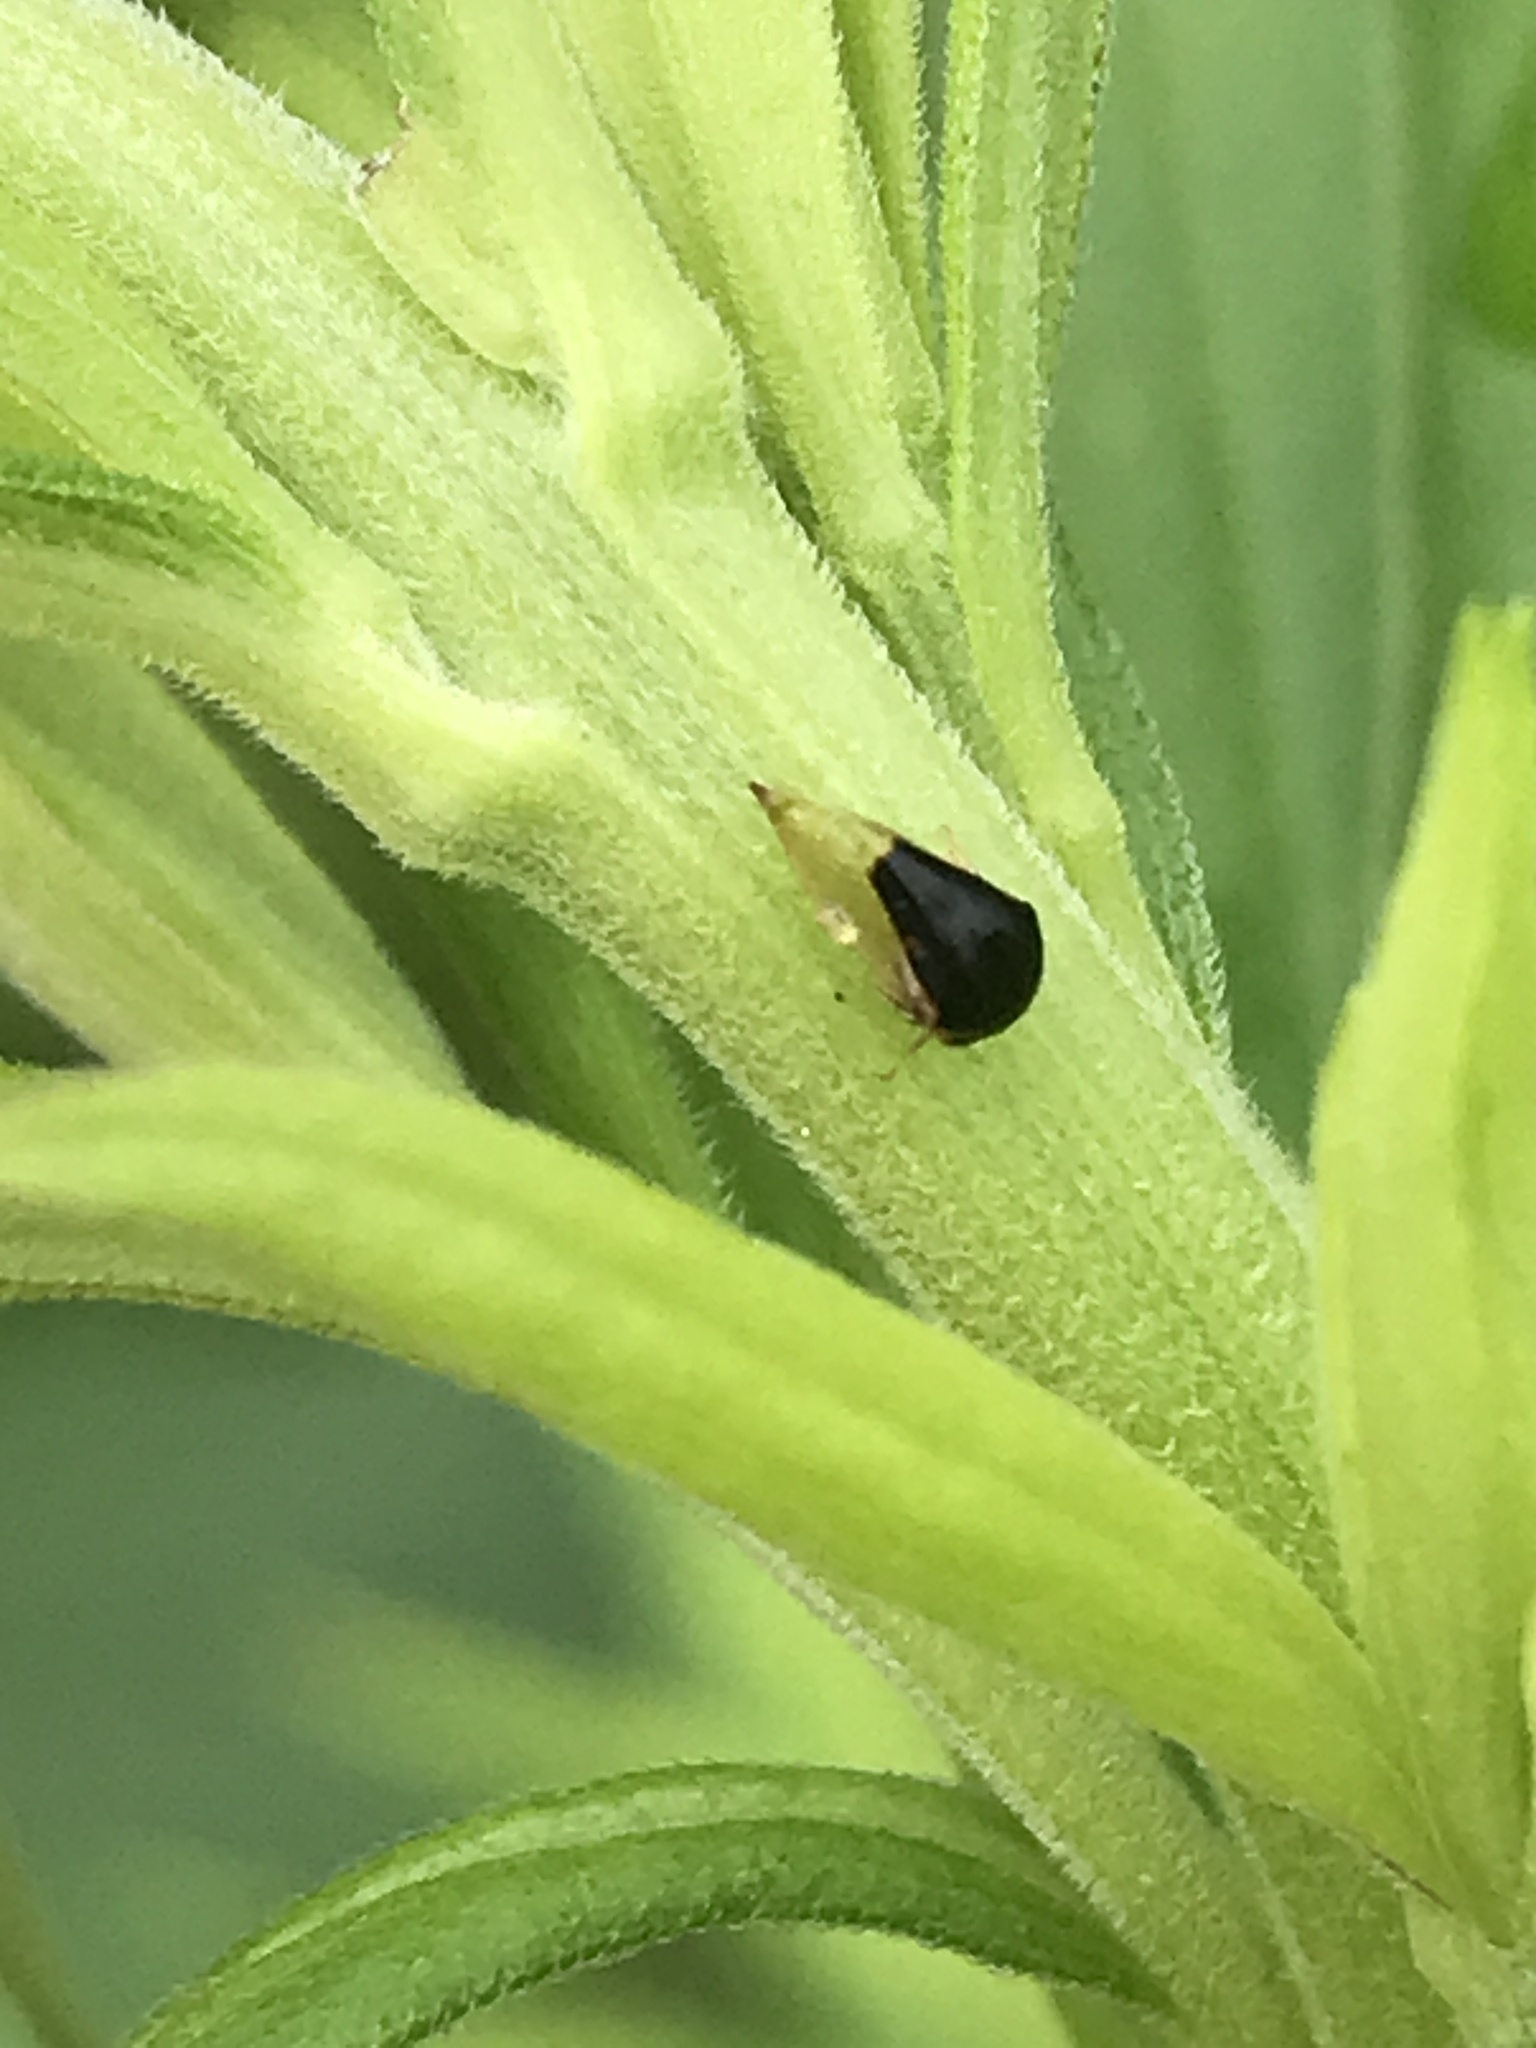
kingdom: Animalia
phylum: Arthropoda
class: Insecta
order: Hemiptera
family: Membracidae
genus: Micrutalis
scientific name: Micrutalis calva
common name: Honeylocust treehopper
